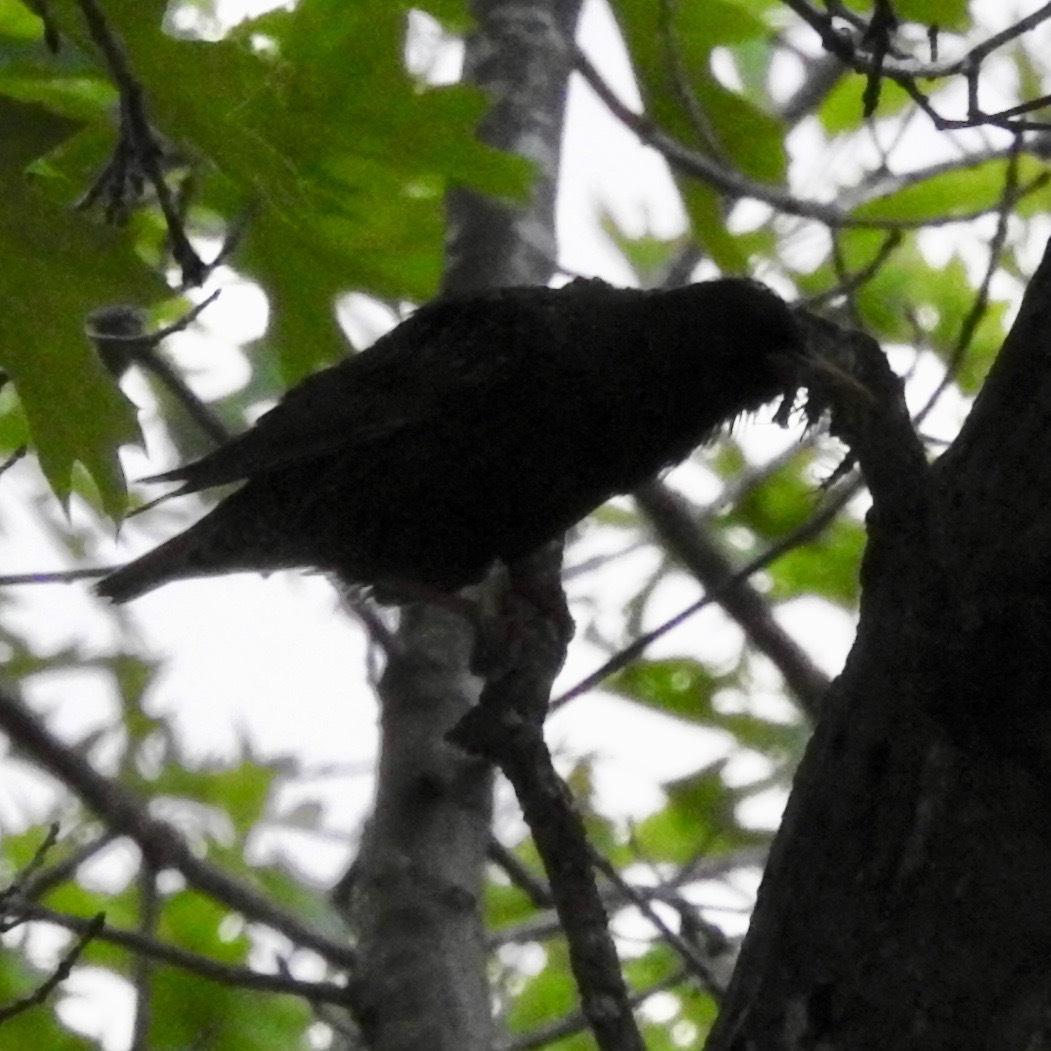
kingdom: Animalia
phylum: Chordata
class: Aves
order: Passeriformes
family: Sturnidae
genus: Sturnus
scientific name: Sturnus vulgaris
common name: Common starling
